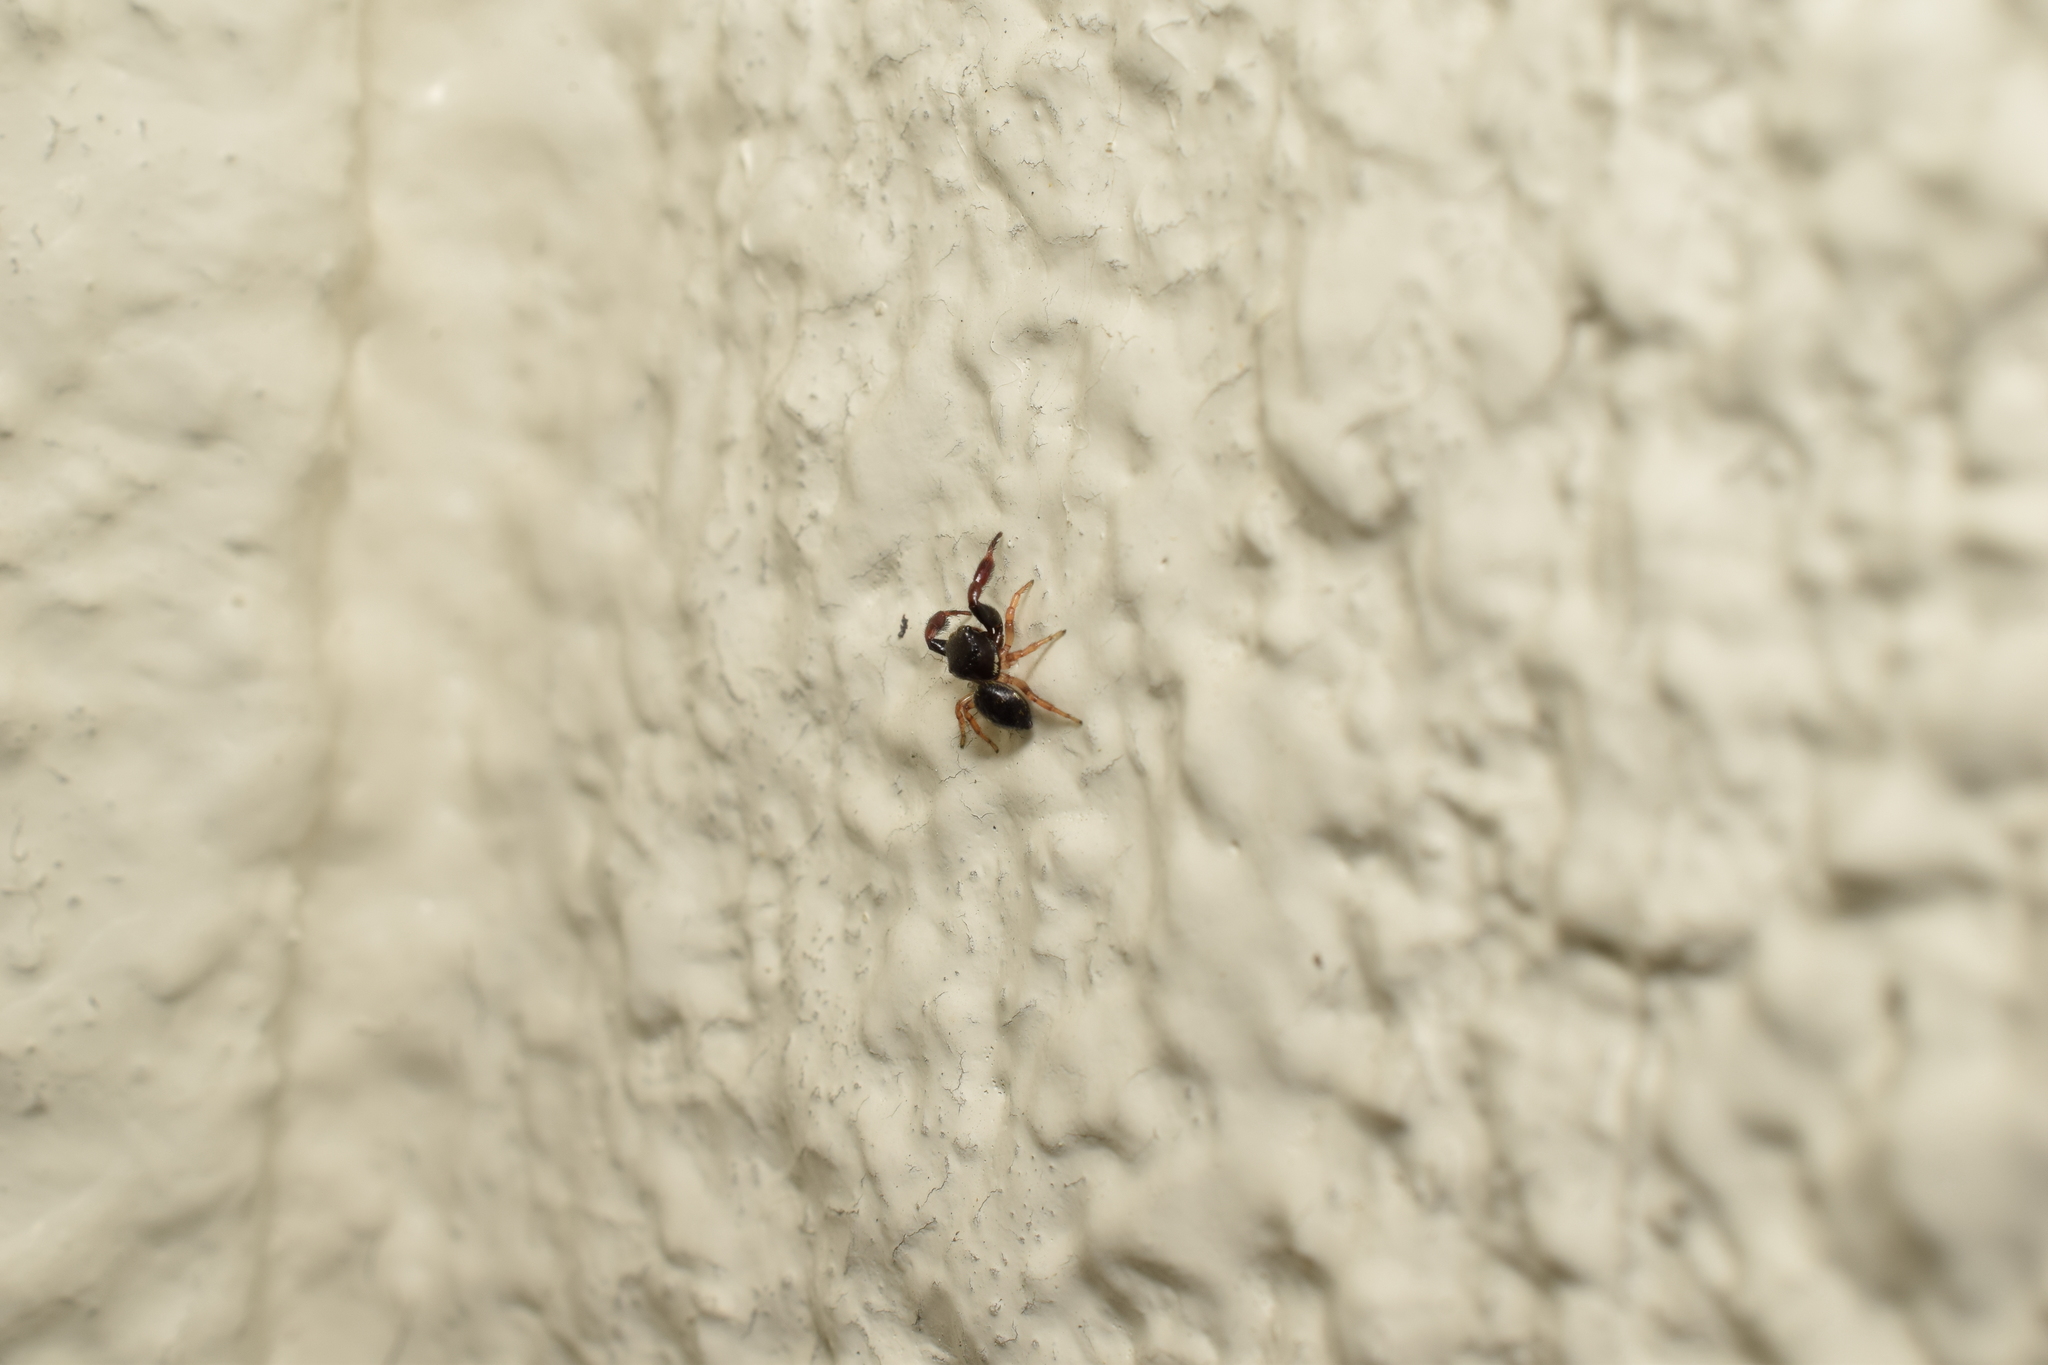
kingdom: Animalia
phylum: Arthropoda
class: Arachnida
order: Araneae
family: Salticidae
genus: Sibianor
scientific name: Sibianor pullus
